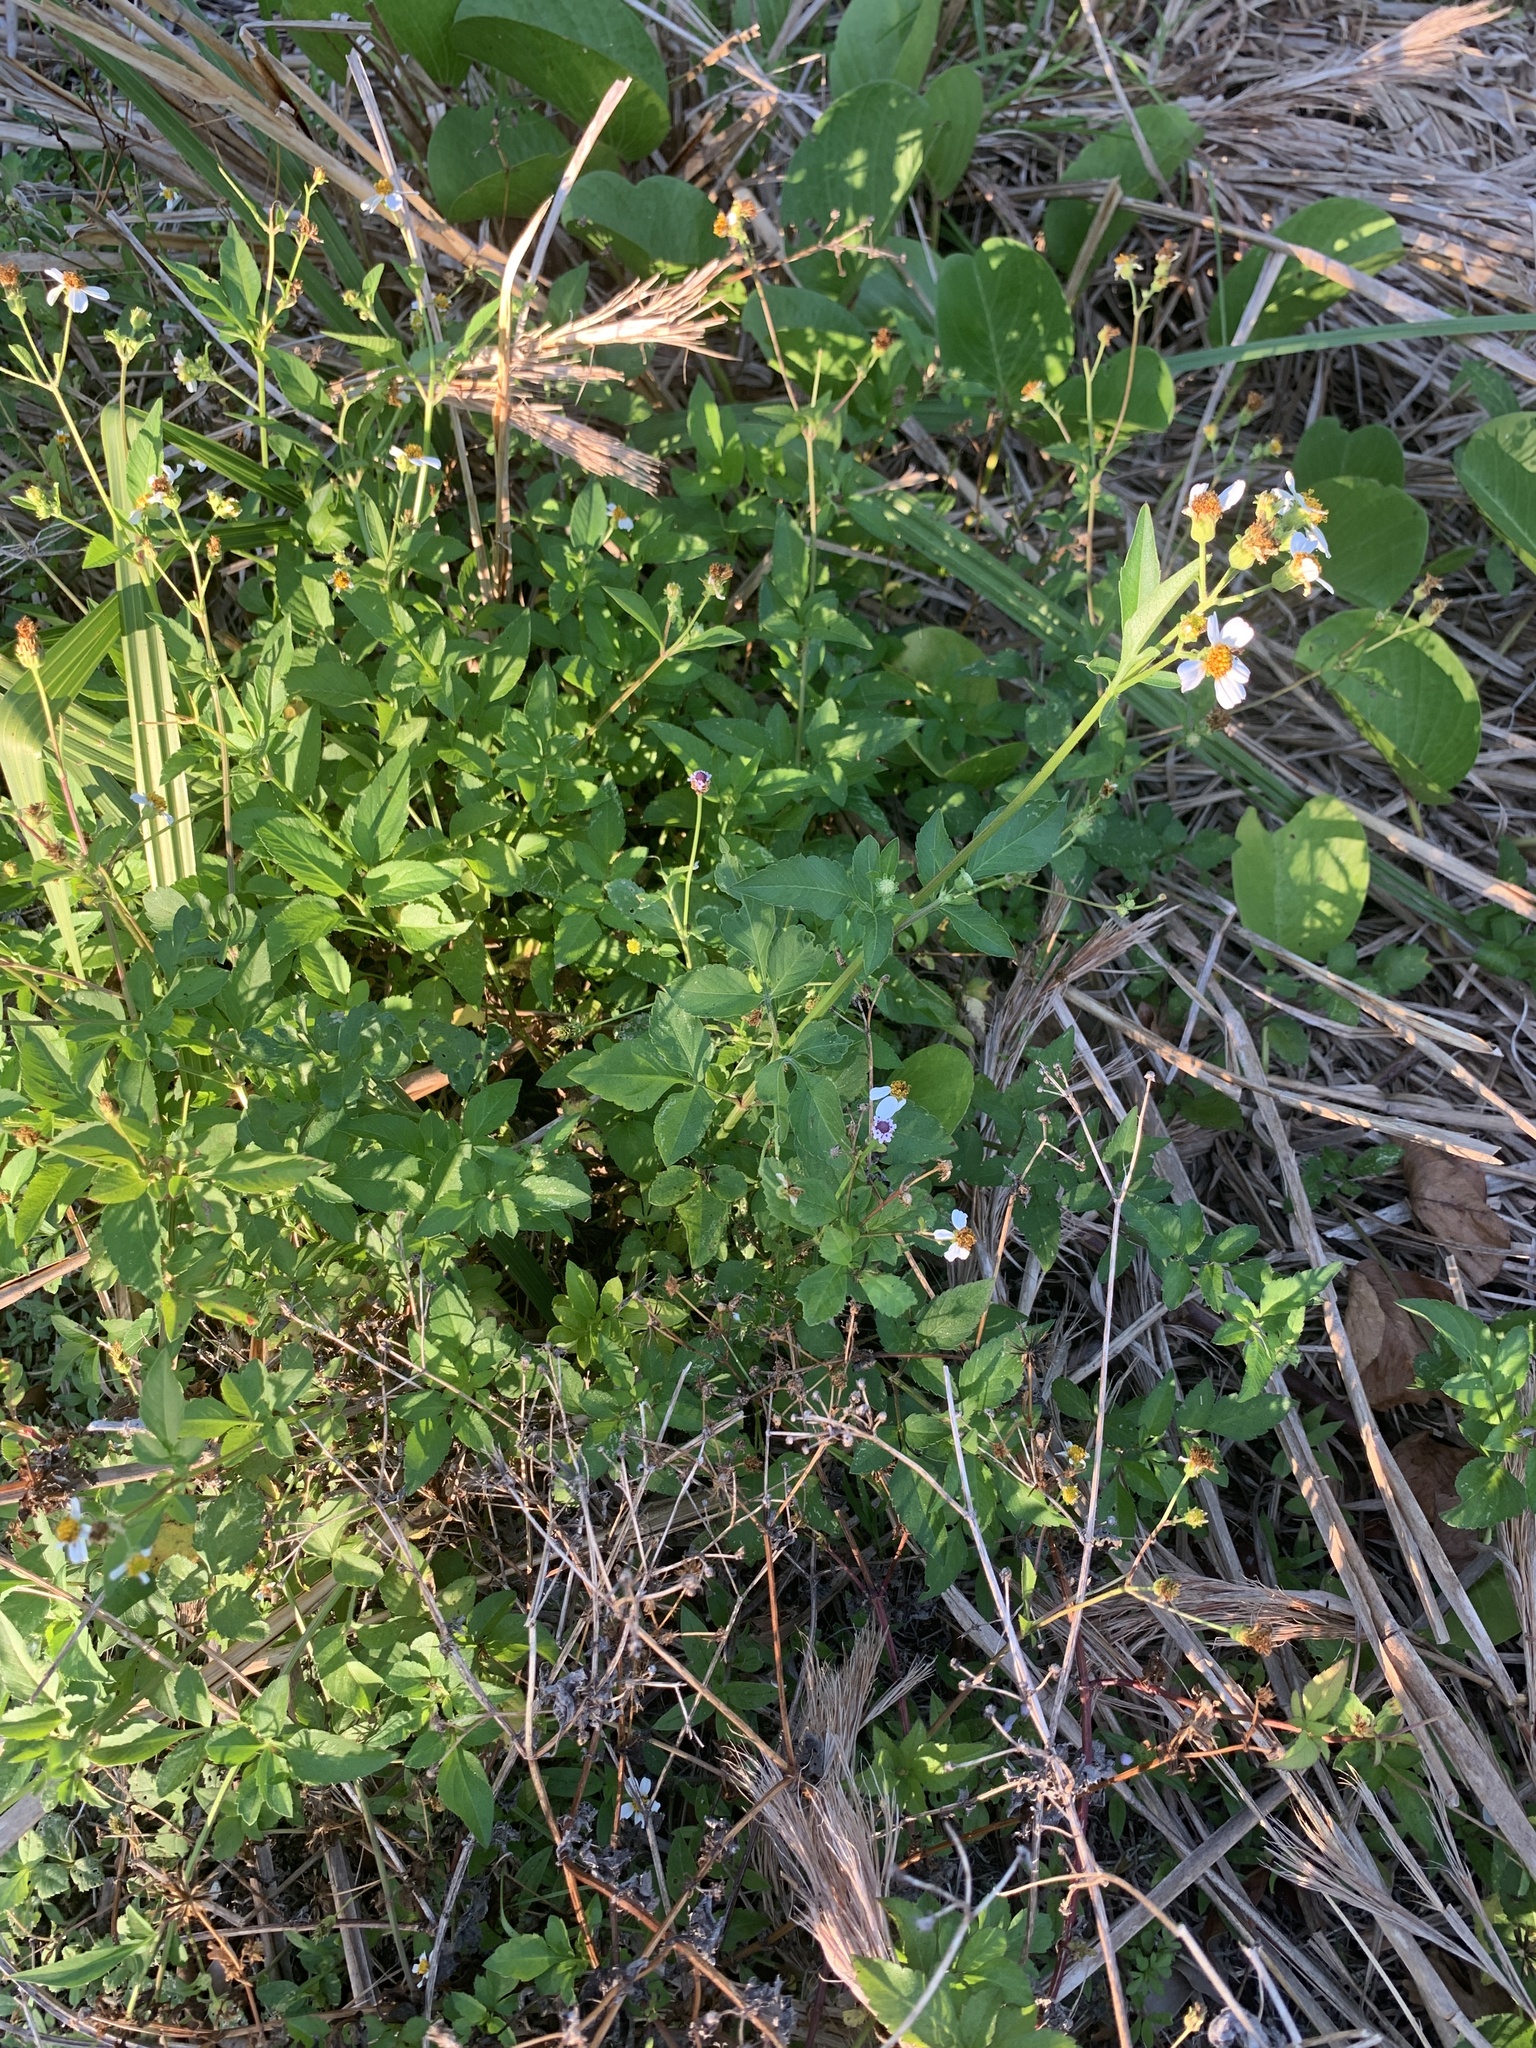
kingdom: Plantae
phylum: Tracheophyta
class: Magnoliopsida
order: Asterales
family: Asteraceae
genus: Bidens
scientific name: Bidens alba
